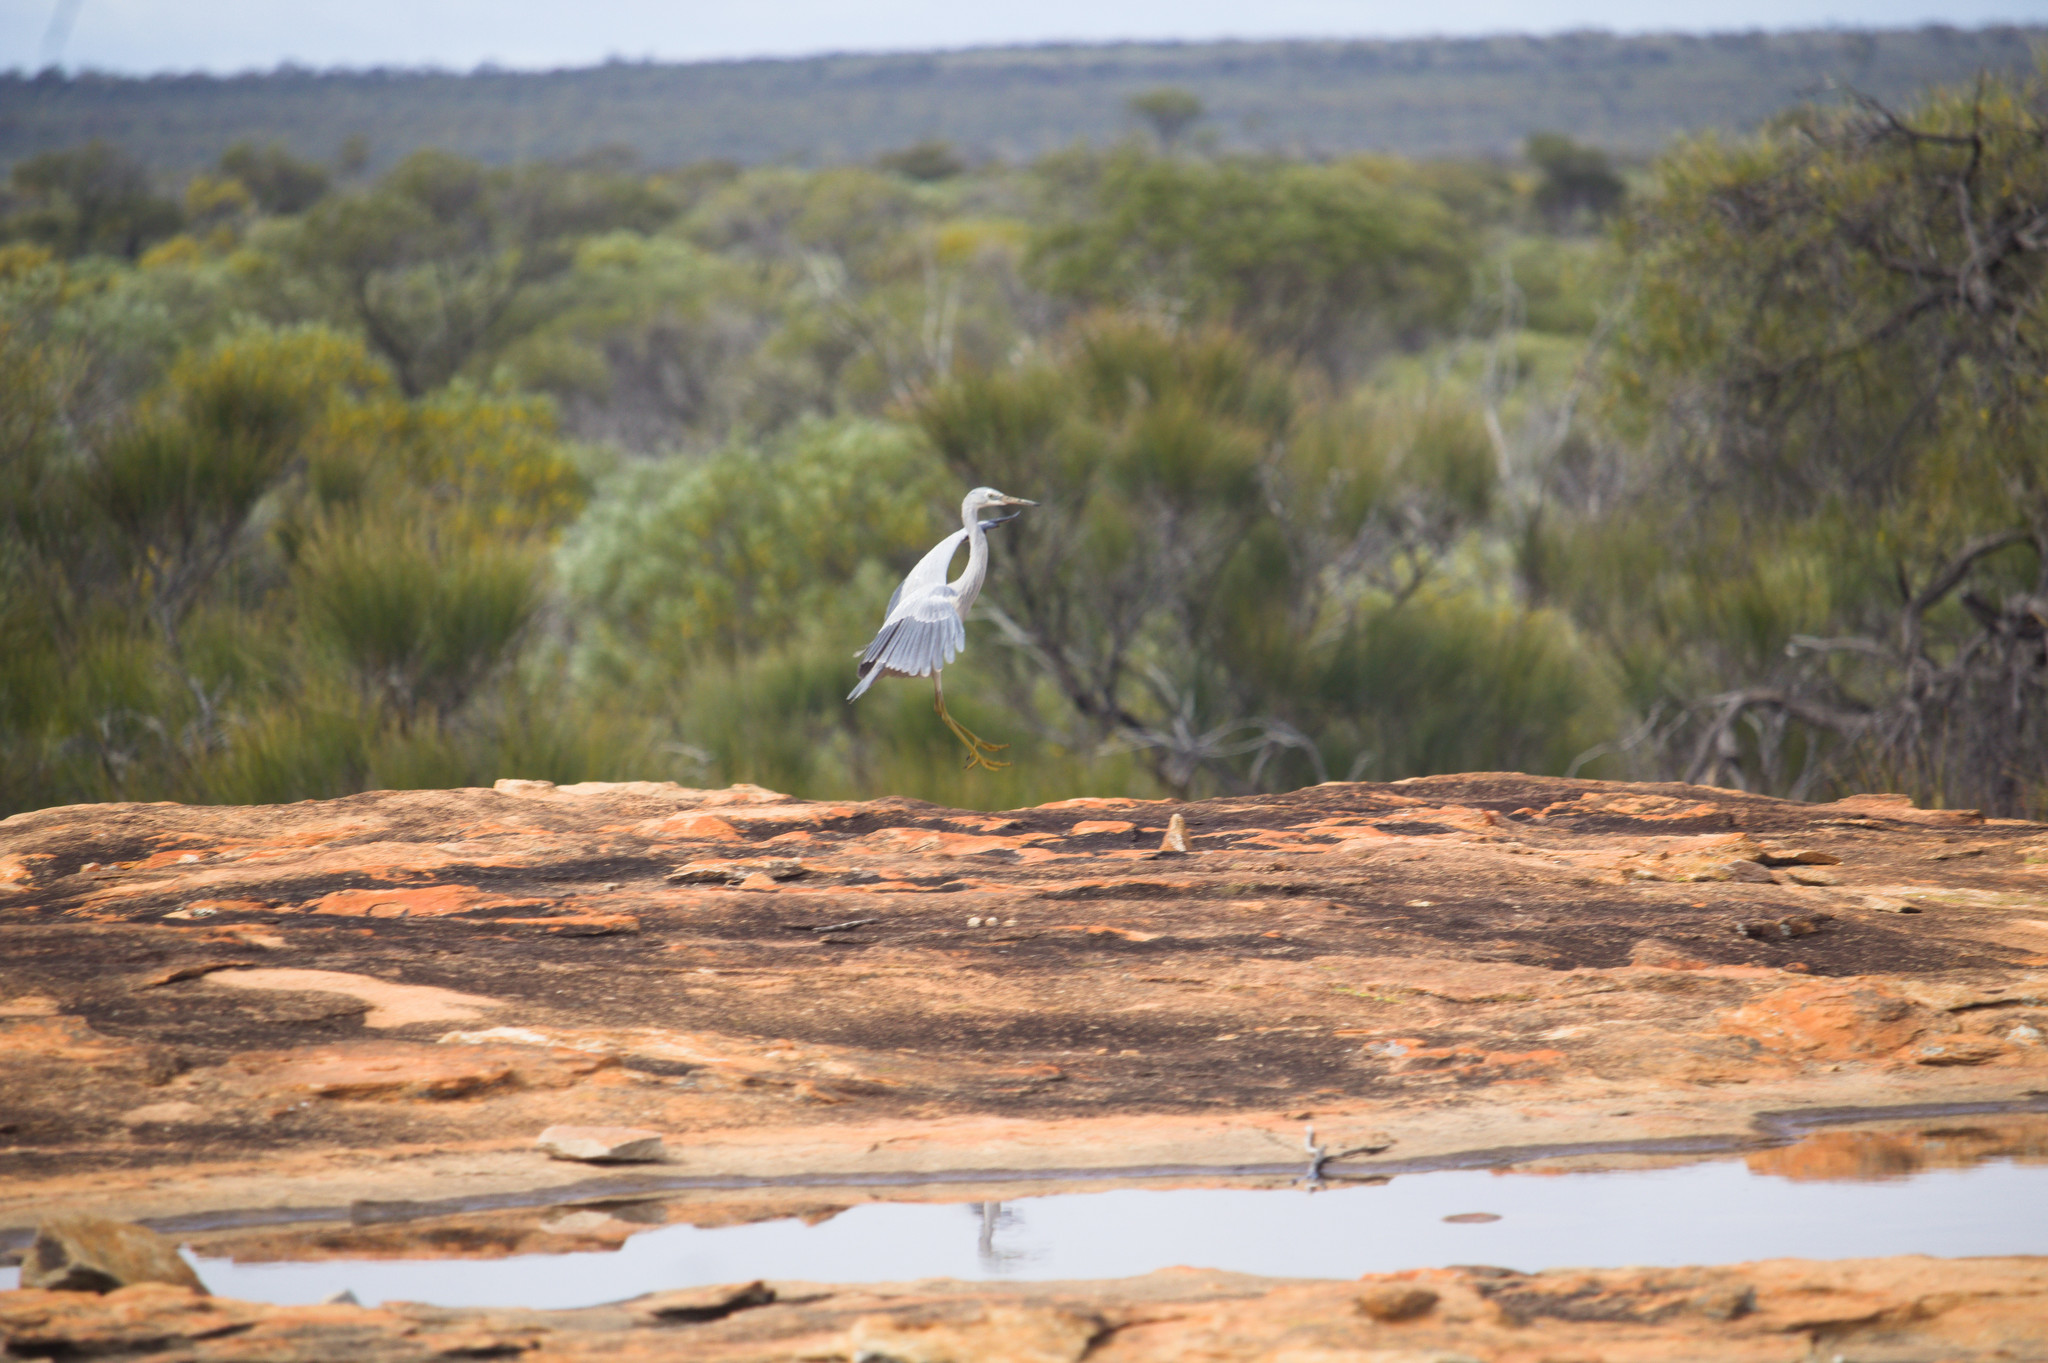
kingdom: Animalia
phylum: Chordata
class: Aves
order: Pelecaniformes
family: Ardeidae
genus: Egretta
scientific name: Egretta novaehollandiae
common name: White-faced heron
